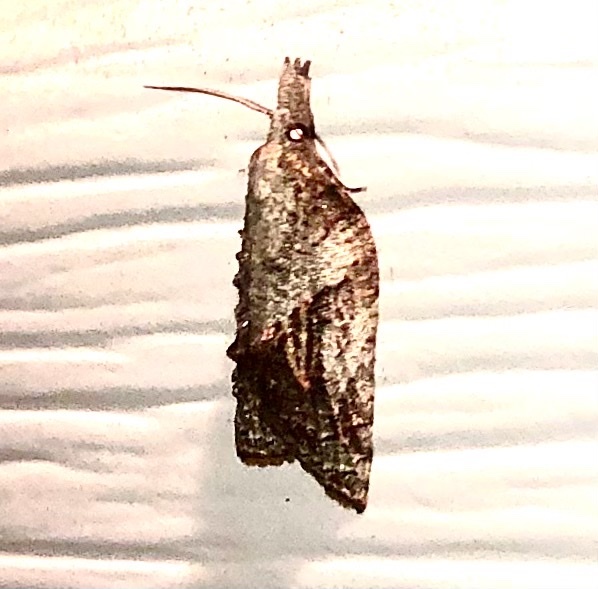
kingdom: Animalia
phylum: Arthropoda
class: Insecta
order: Lepidoptera
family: Tortricidae
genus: Platynota
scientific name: Platynota idaeusalis
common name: Tufted apple bud moth
